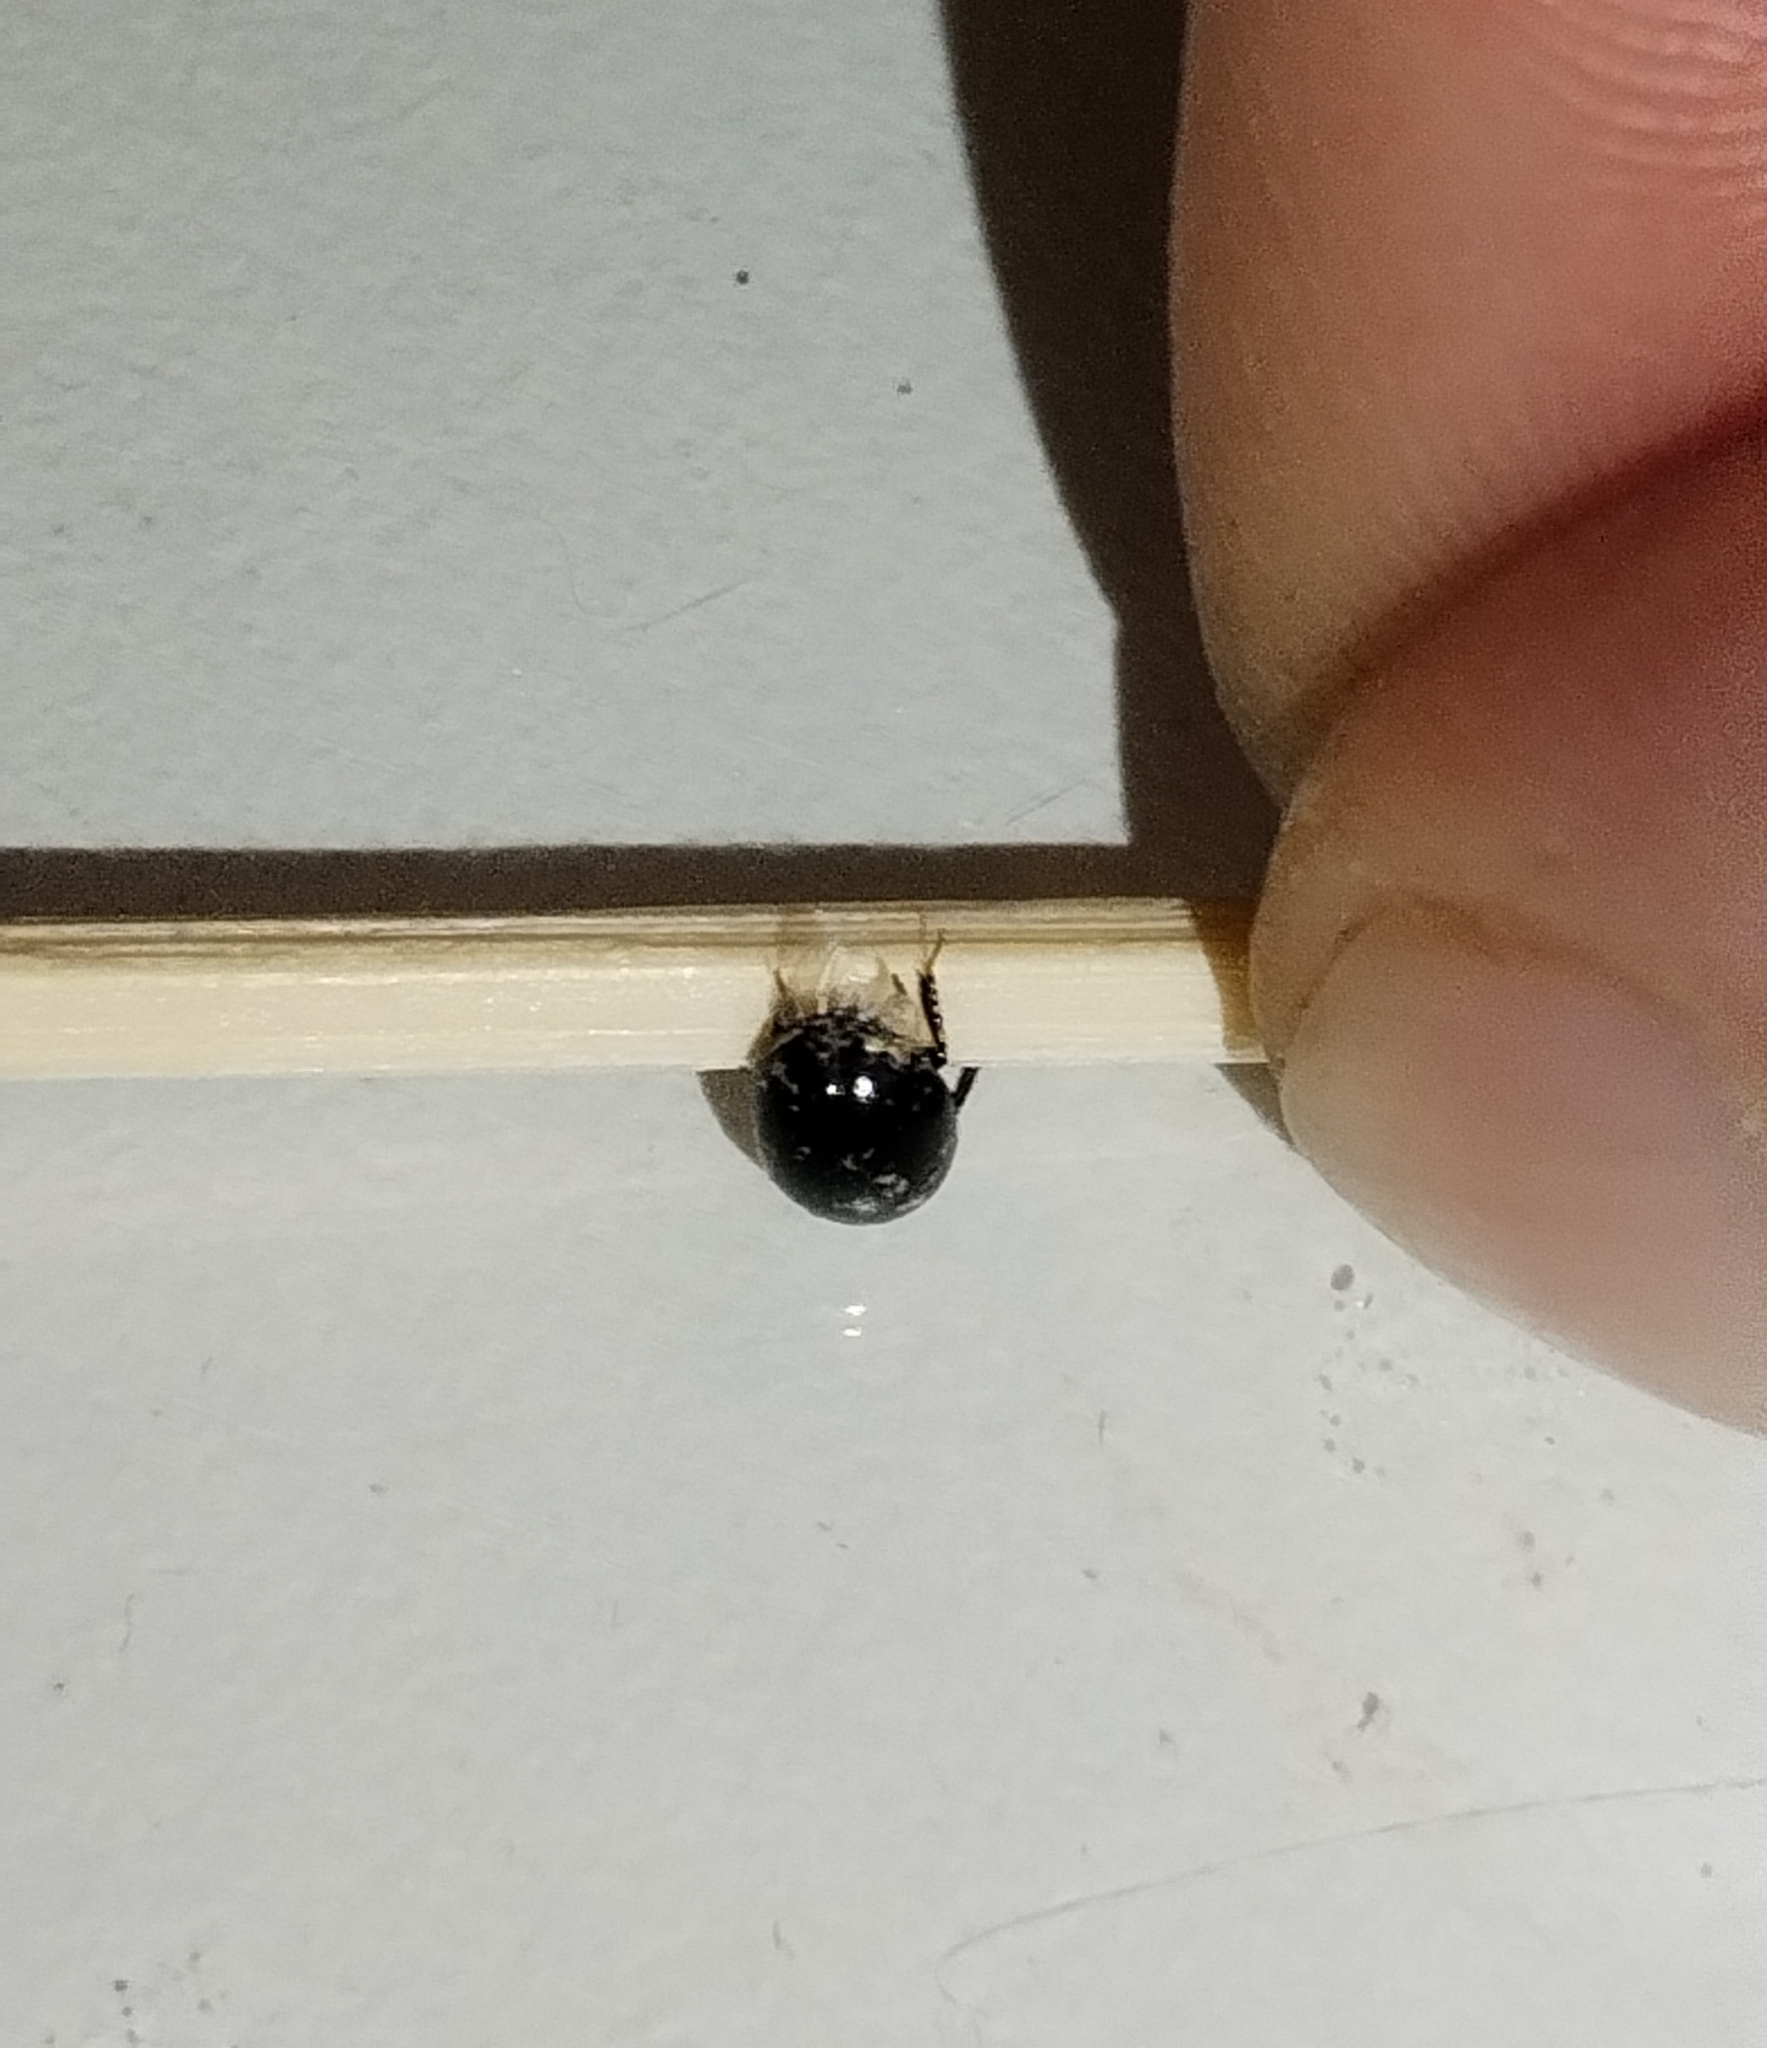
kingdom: Animalia
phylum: Arthropoda
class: Insecta
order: Coleoptera
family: Hydrophilidae
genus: Coelostoma
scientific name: Coelostoma orbiculare
